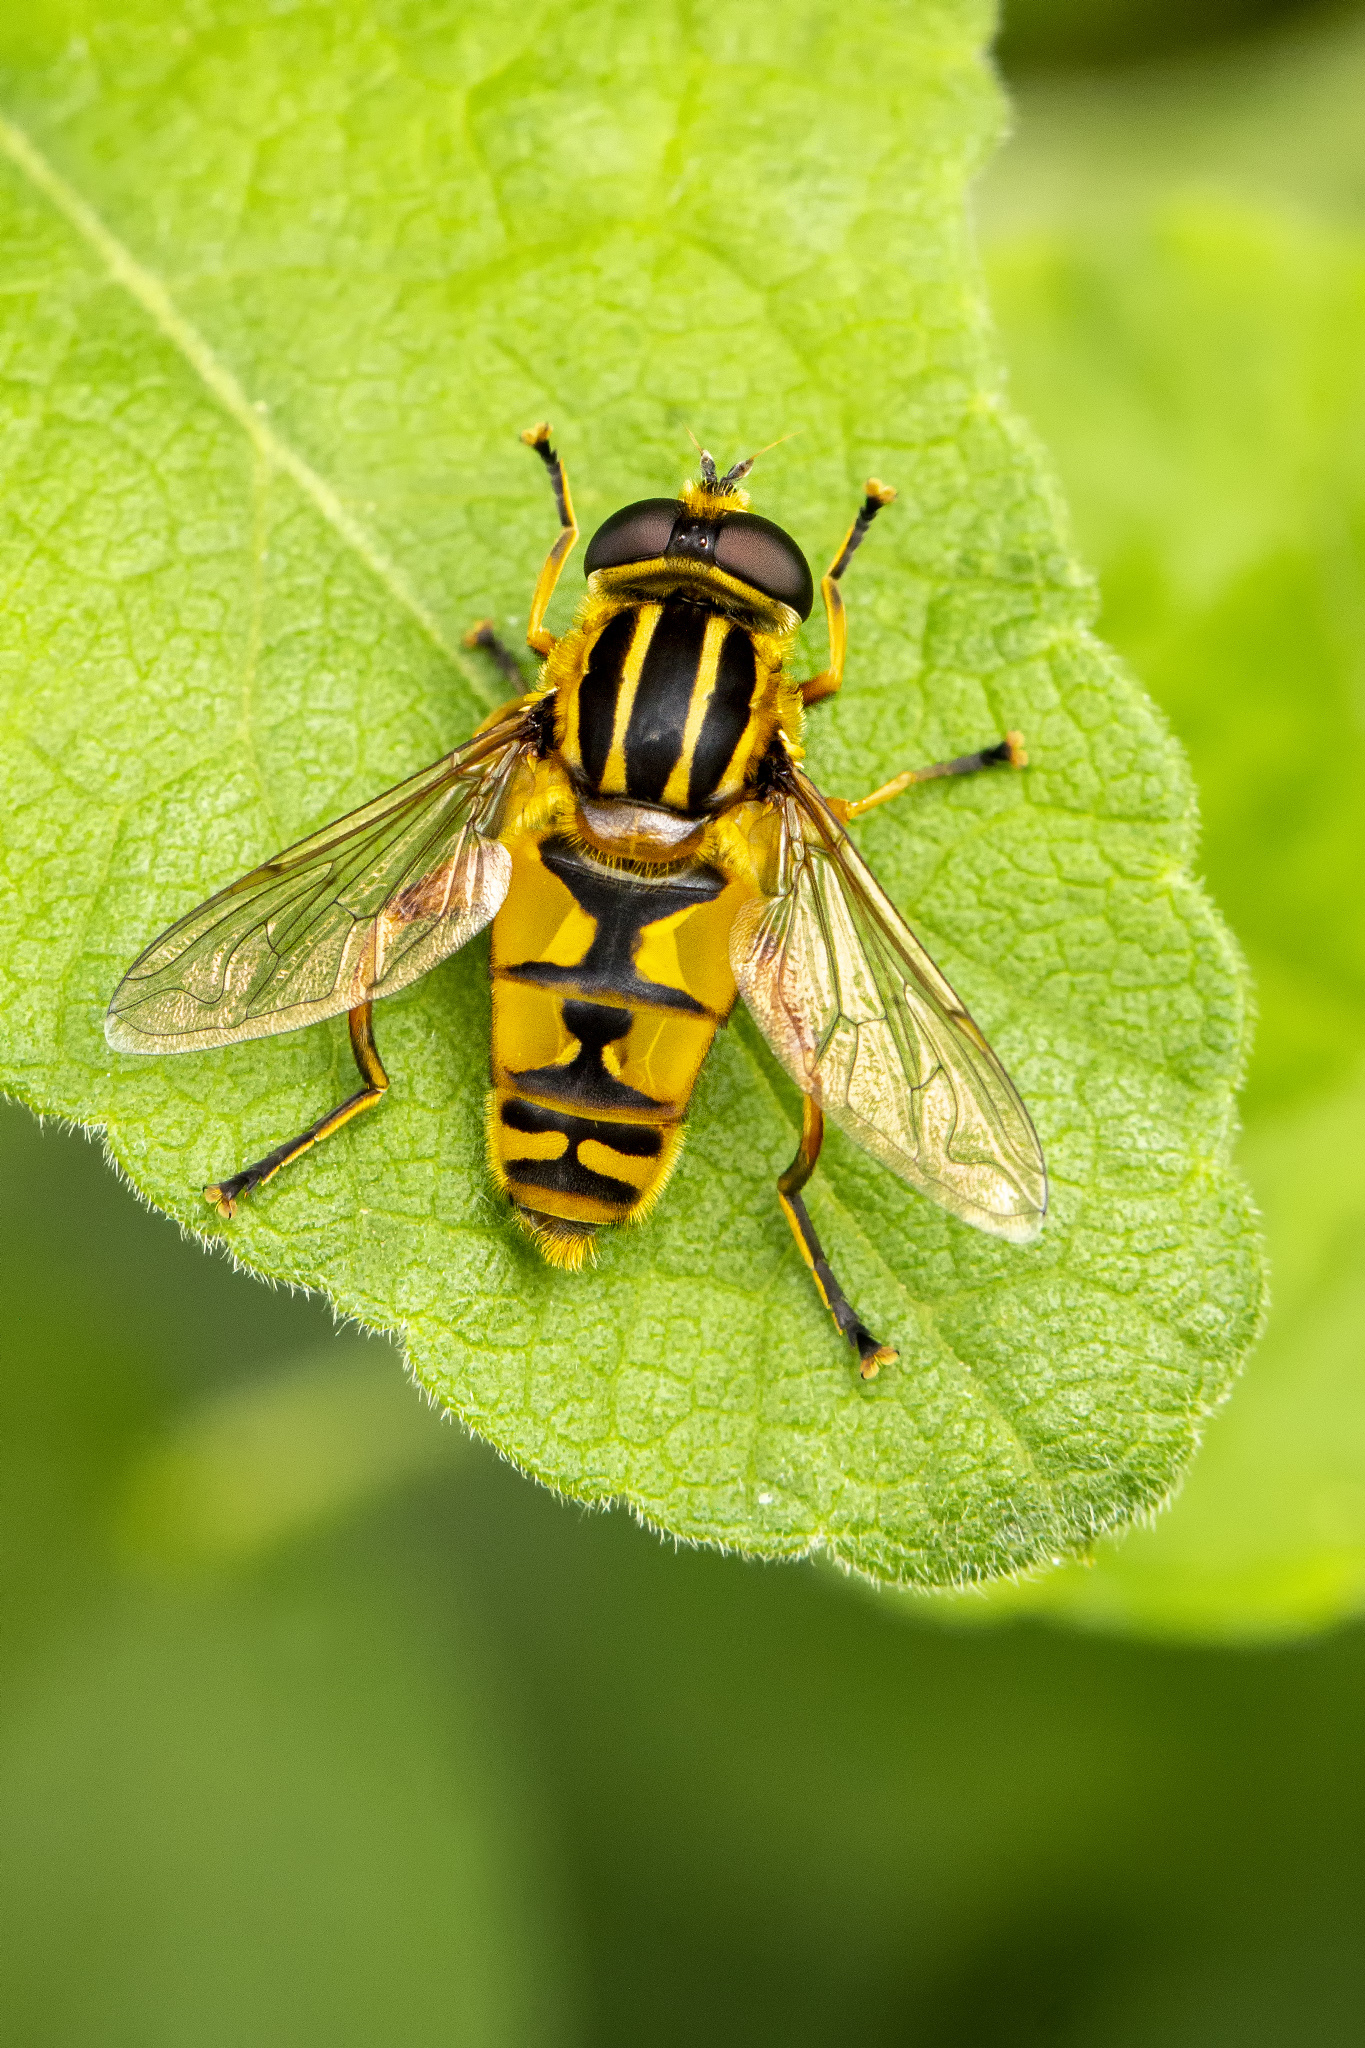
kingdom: Animalia
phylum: Arthropoda
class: Insecta
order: Diptera
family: Syrphidae
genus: Helophilus
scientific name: Helophilus pendulus
